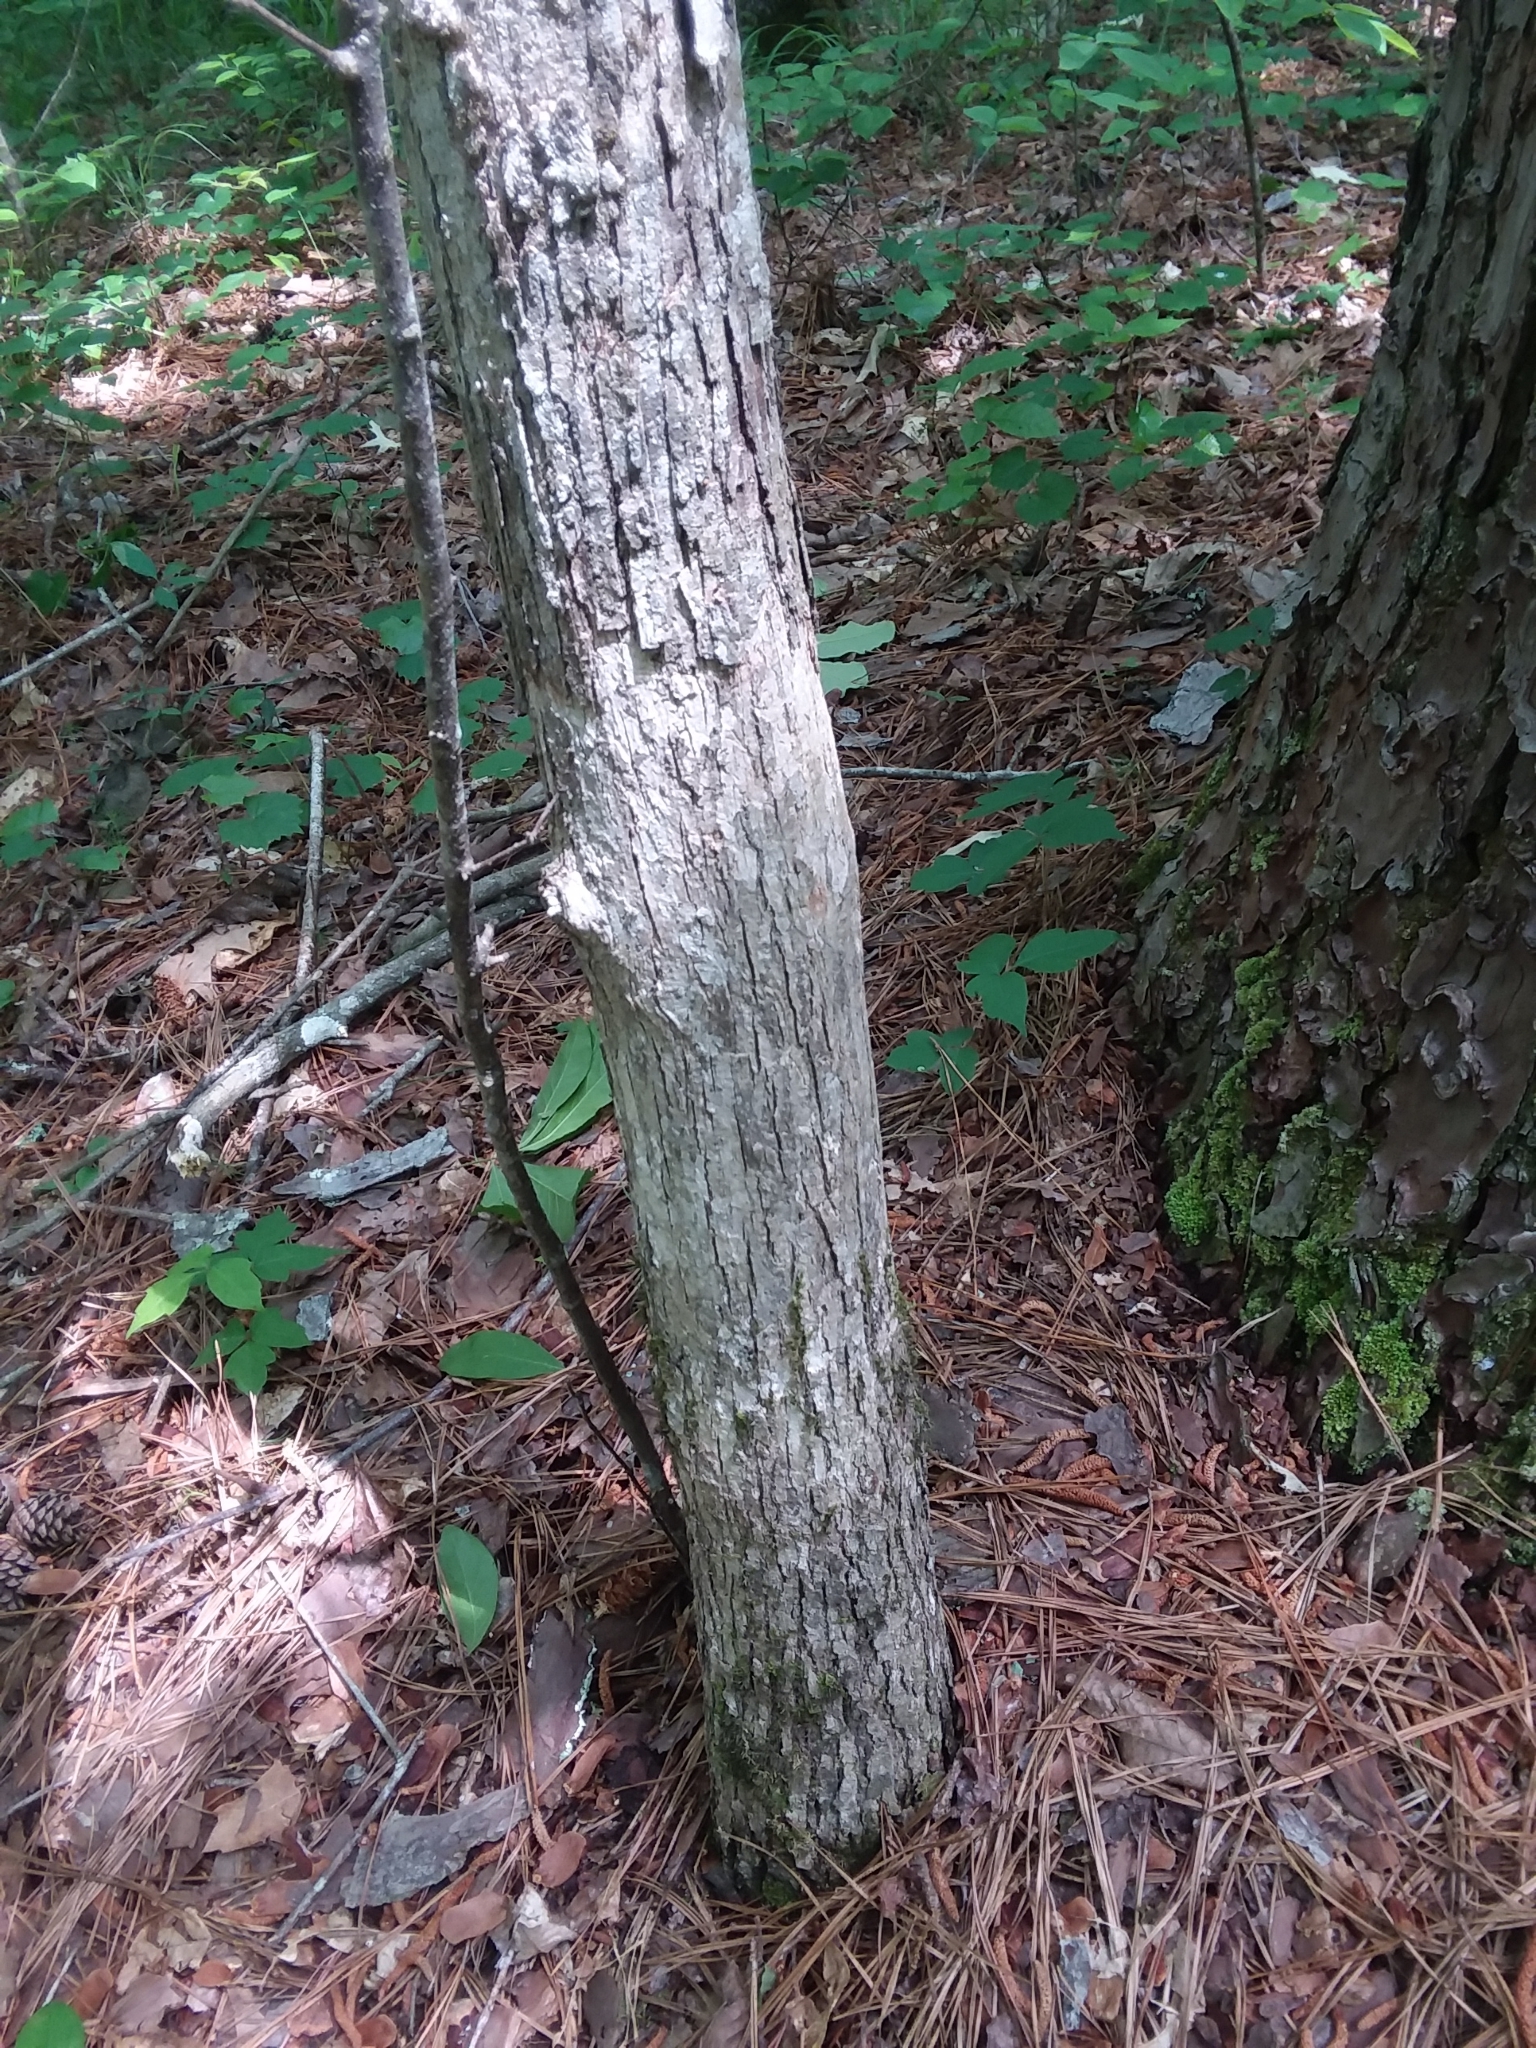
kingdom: Plantae
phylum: Tracheophyta
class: Magnoliopsida
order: Fagales
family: Fagaceae
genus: Quercus
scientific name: Quercus oglethorpensis
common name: Oglethorpe oak
